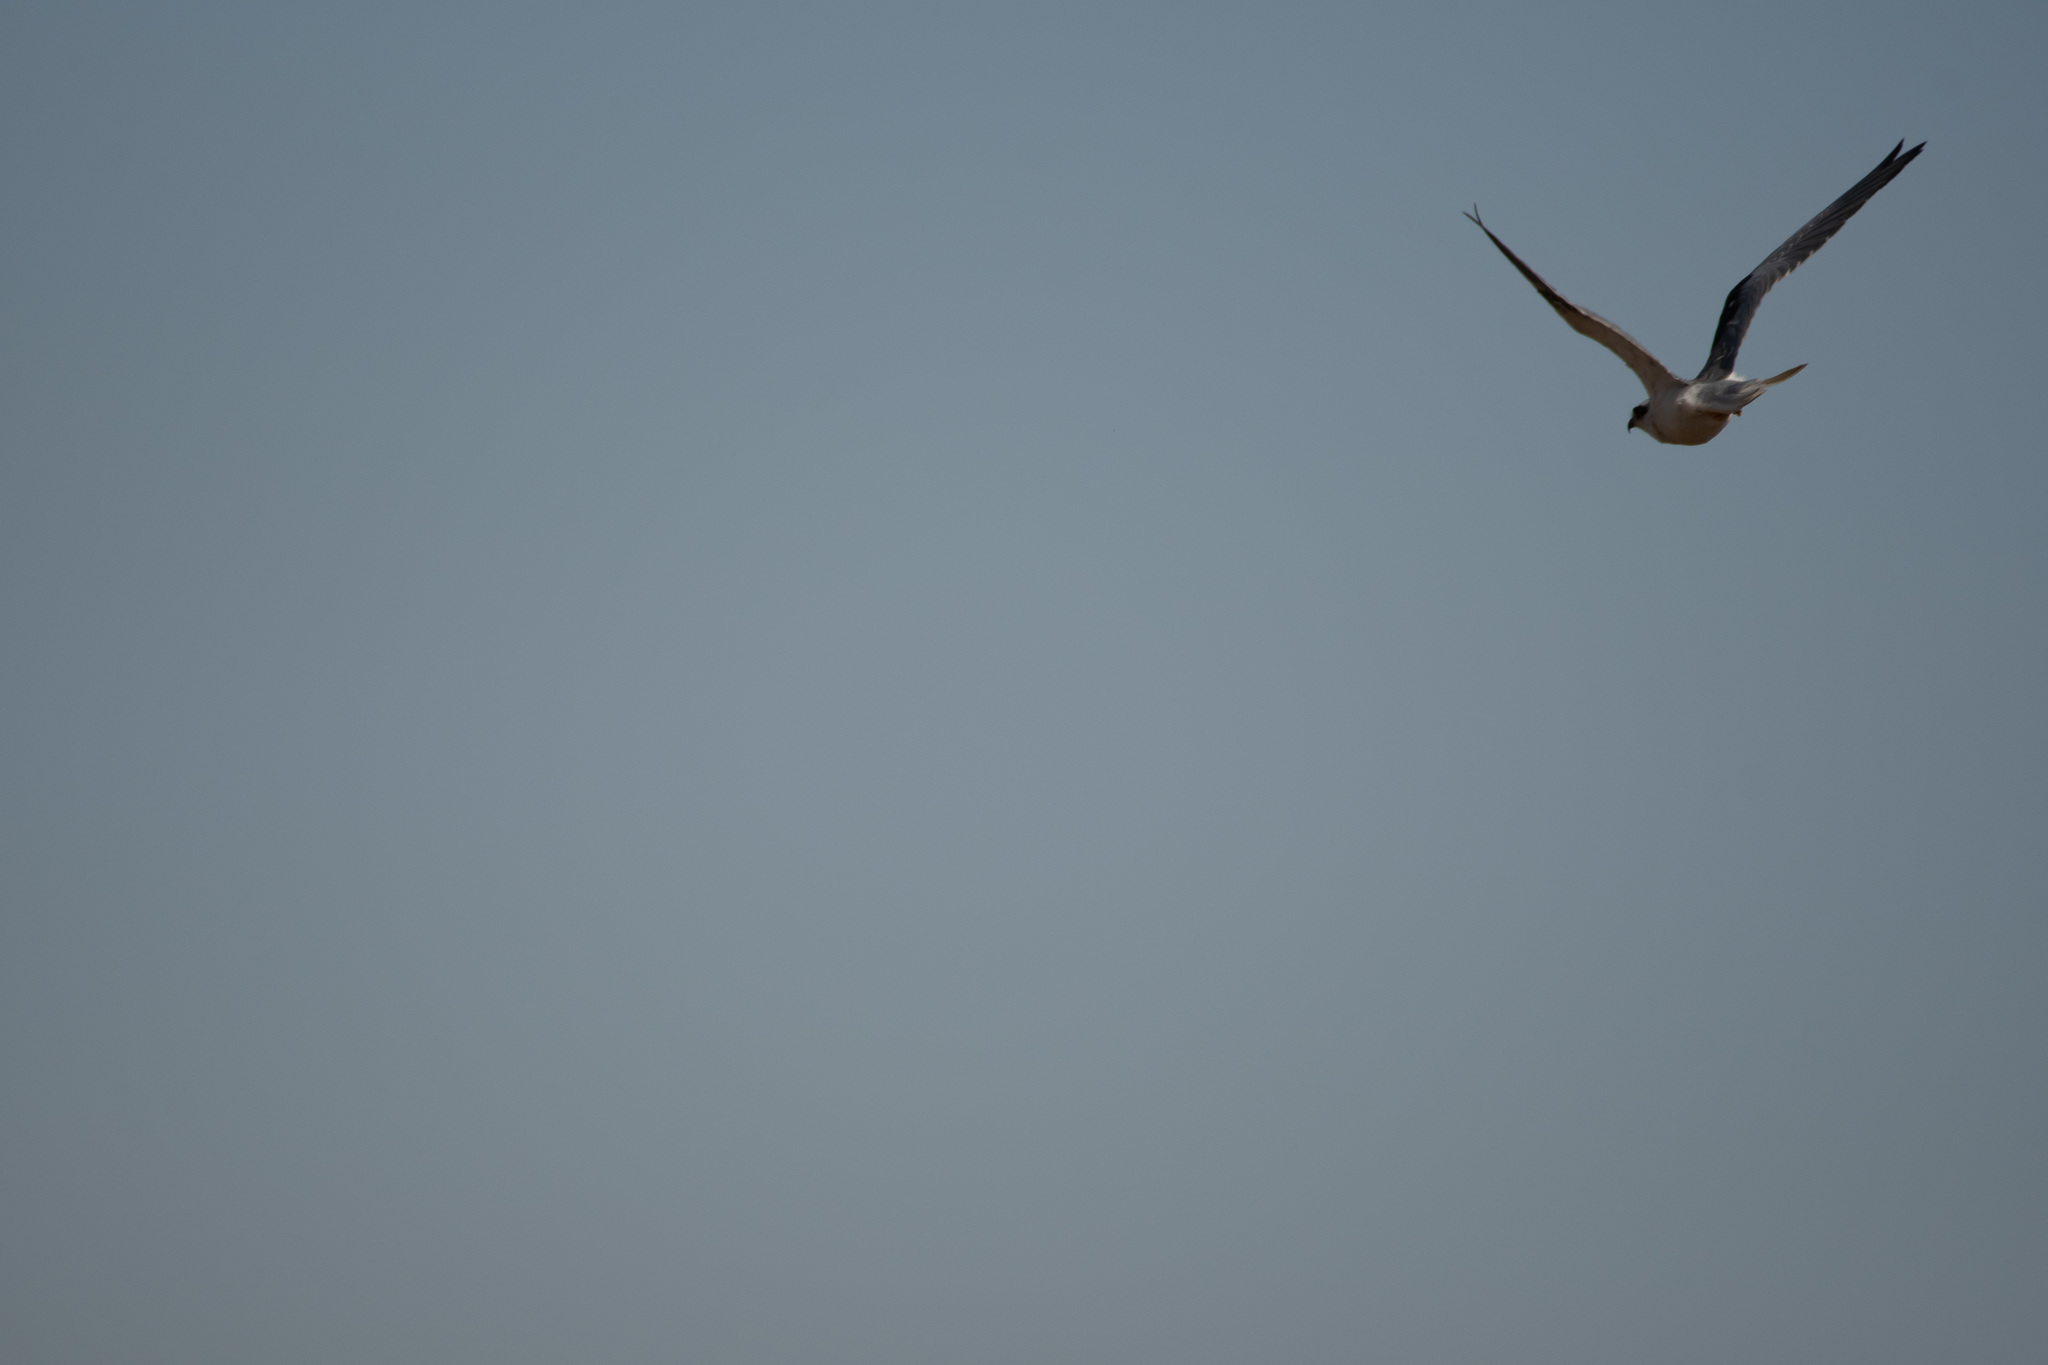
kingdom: Animalia
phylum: Chordata
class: Aves
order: Accipitriformes
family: Accipitridae
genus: Elanus
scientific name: Elanus leucurus
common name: White-tailed kite
